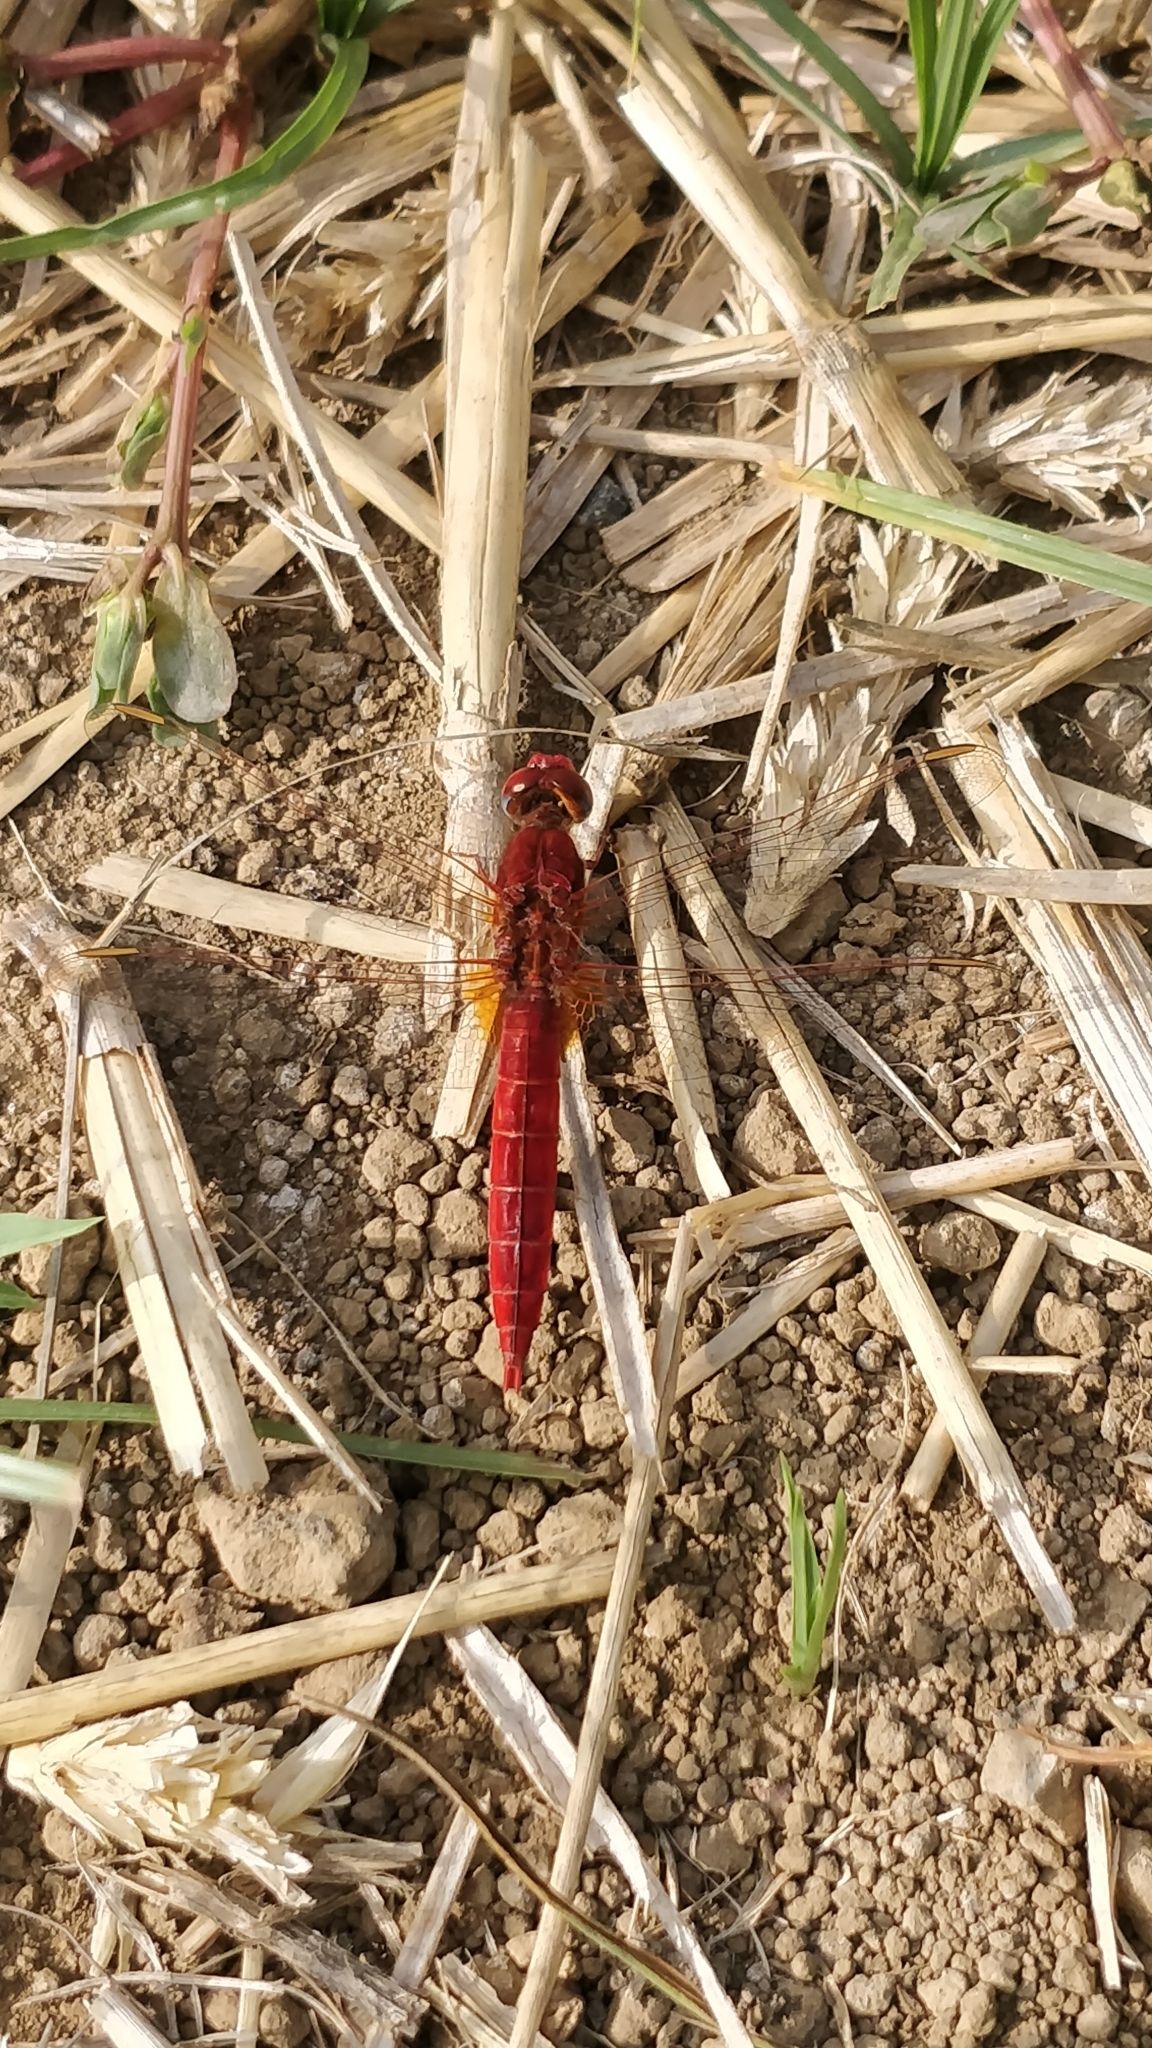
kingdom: Animalia
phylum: Arthropoda
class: Insecta
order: Odonata
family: Libellulidae
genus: Crocothemis
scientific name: Crocothemis erythraea
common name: Scarlet dragonfly
